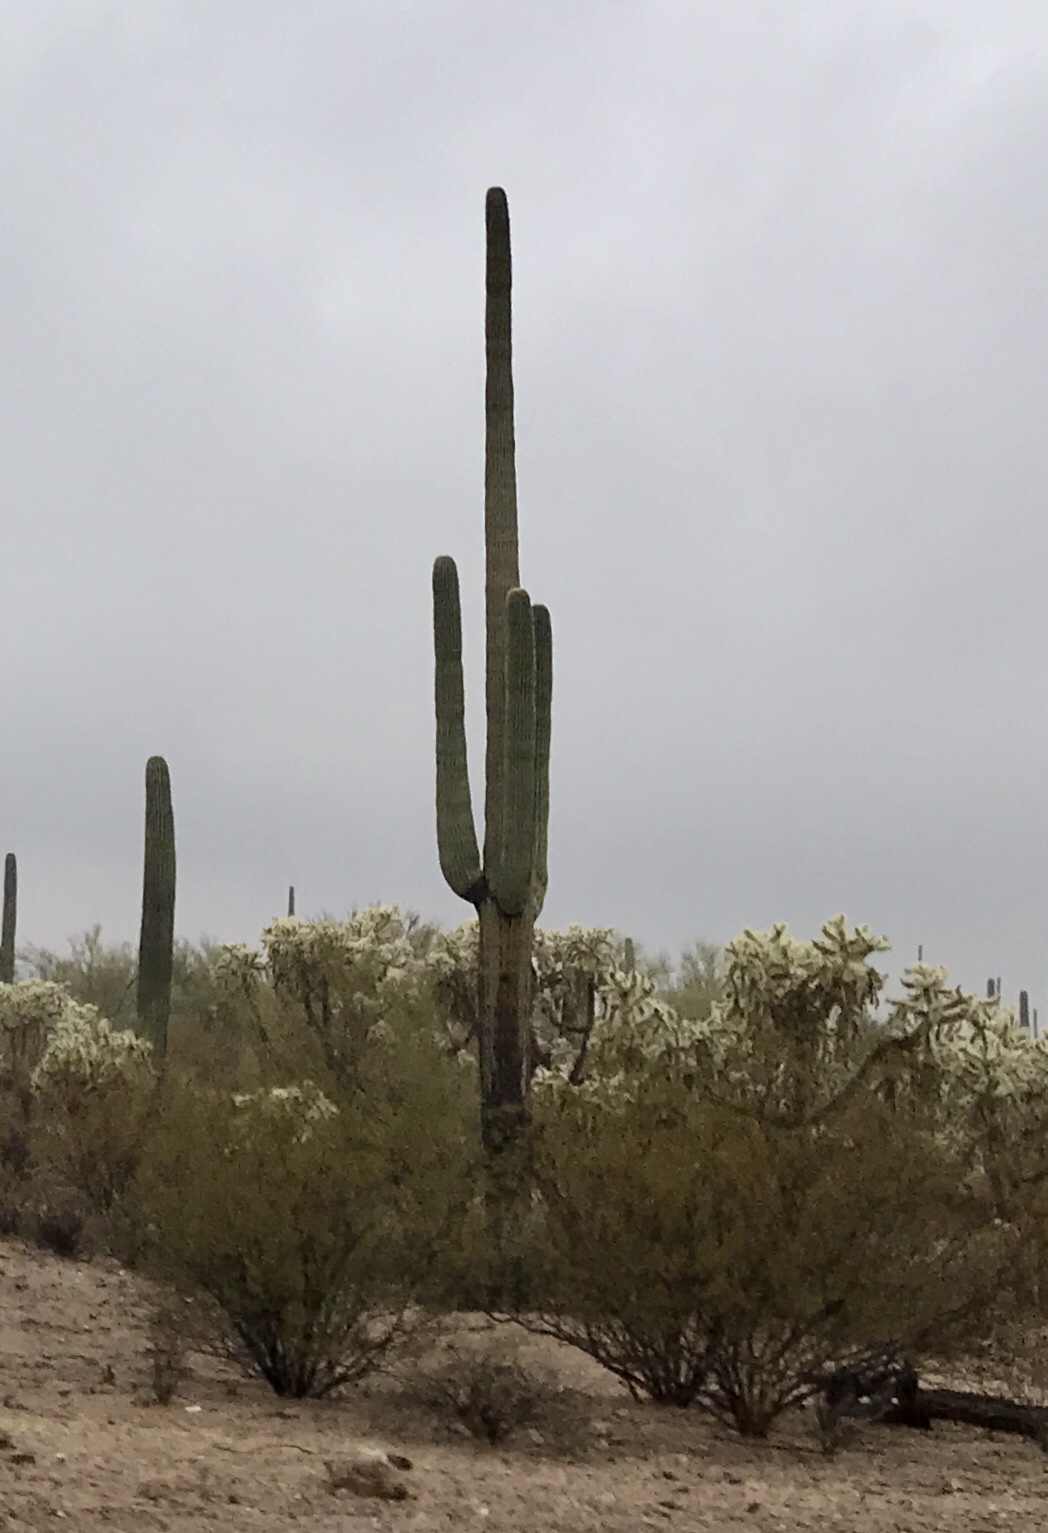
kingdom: Plantae
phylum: Tracheophyta
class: Magnoliopsida
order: Caryophyllales
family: Cactaceae
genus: Carnegiea
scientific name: Carnegiea gigantea
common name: Saguaro
